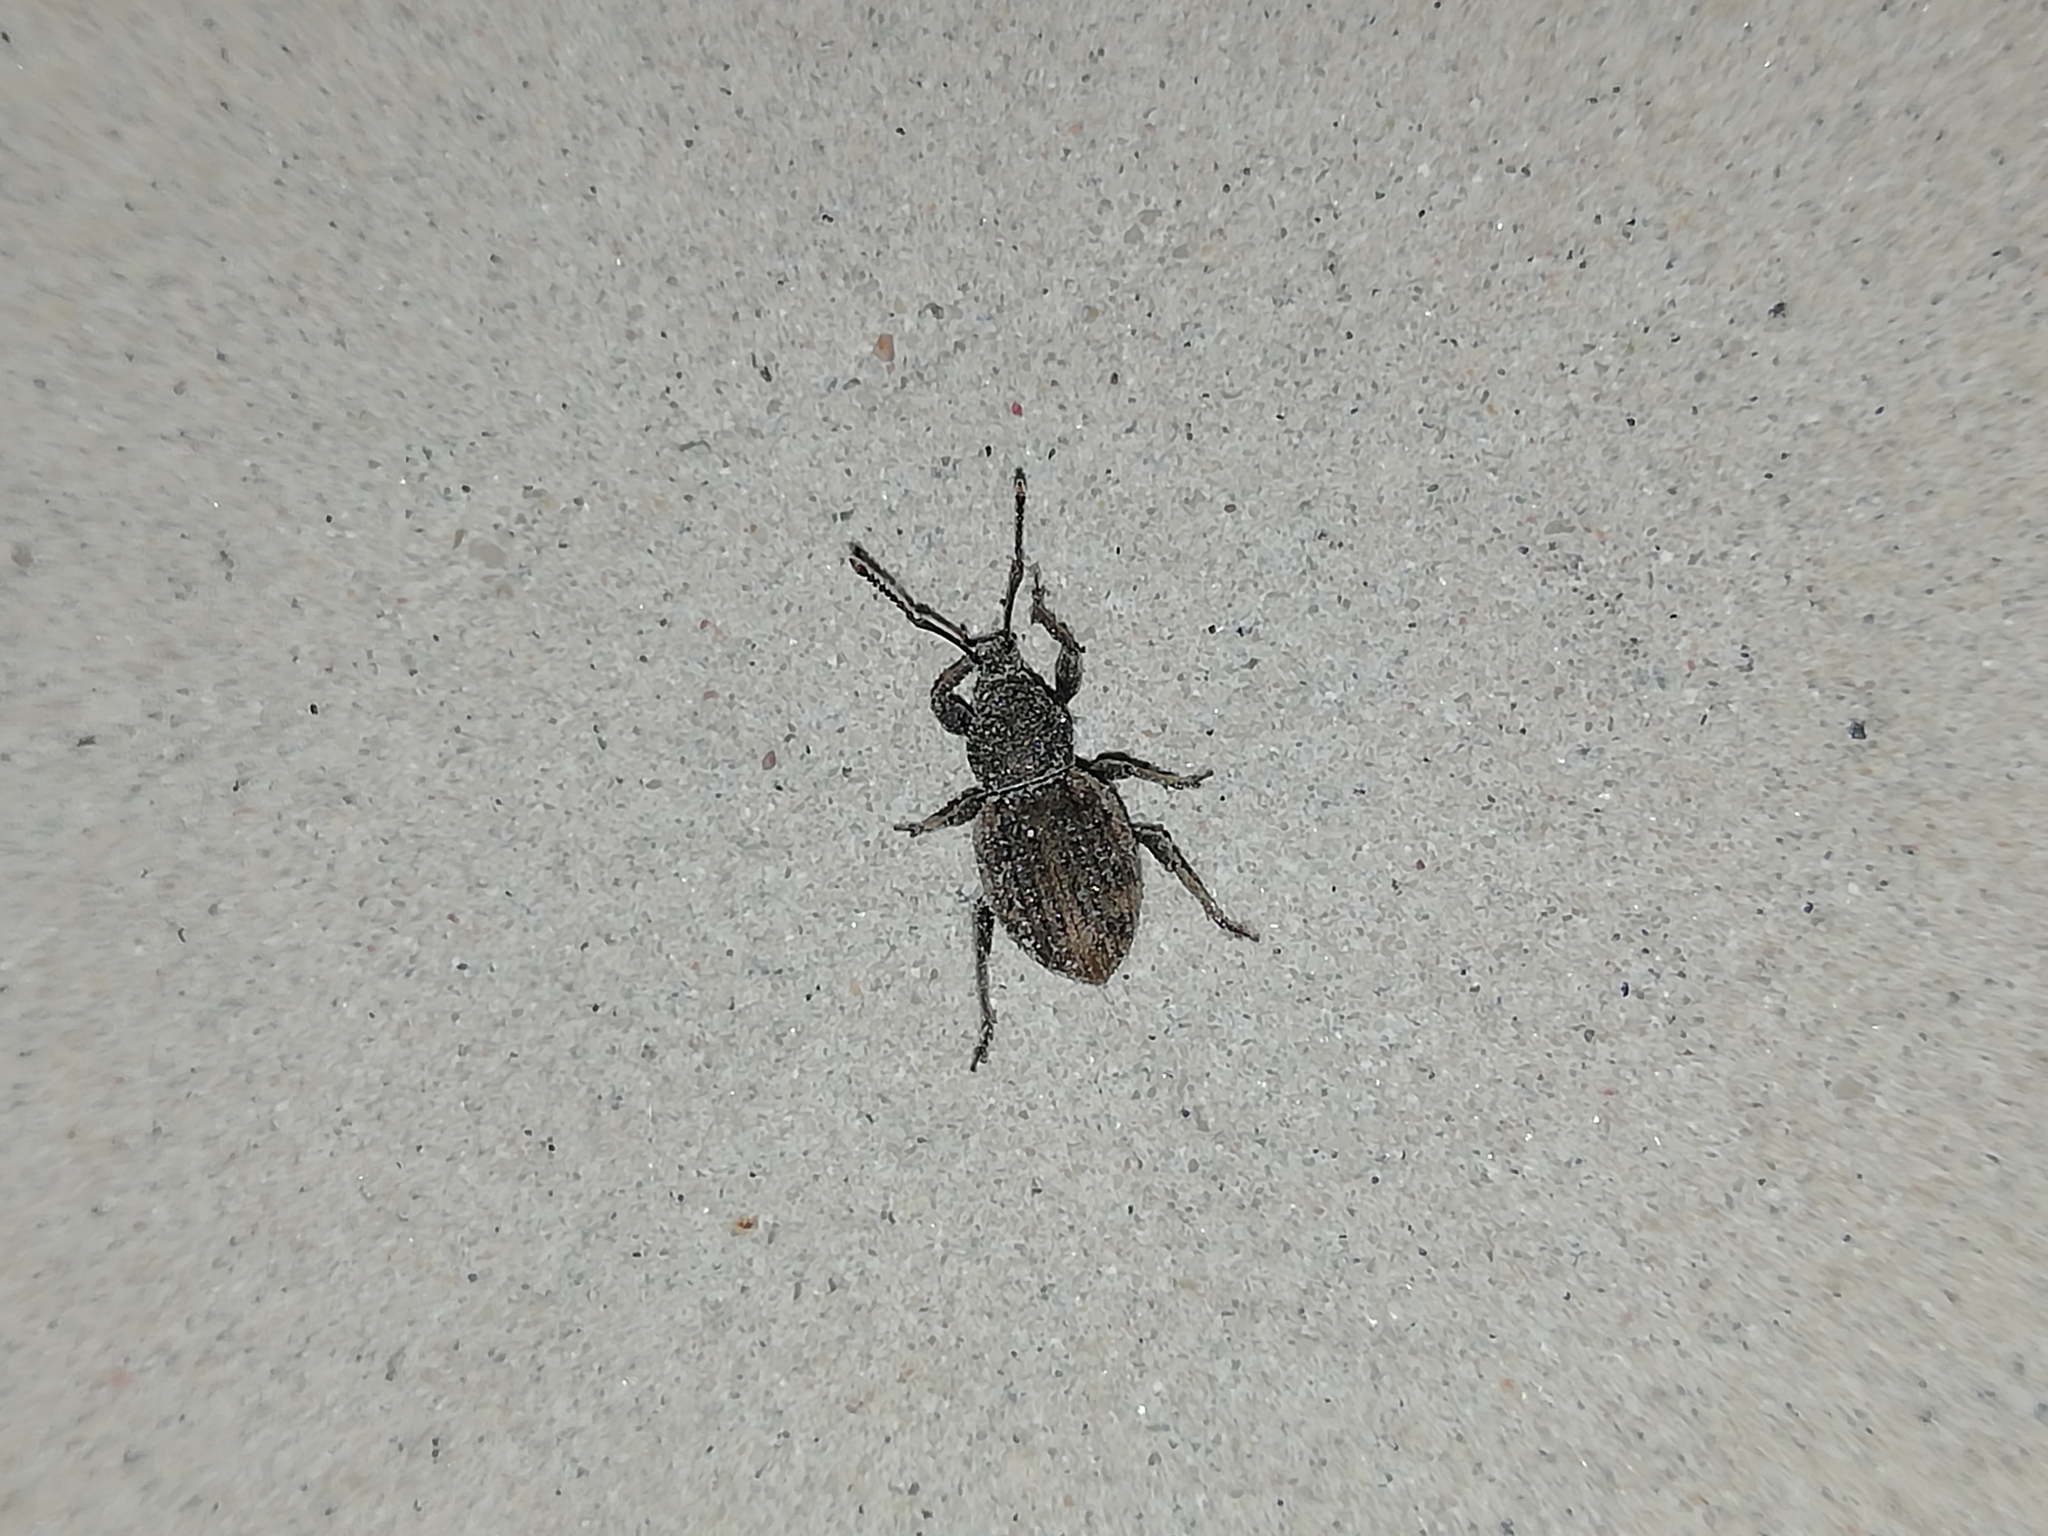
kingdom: Animalia
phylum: Arthropoda
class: Insecta
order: Coleoptera
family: Curculionidae
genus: Otiorhynchus
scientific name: Otiorhynchus raucus
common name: Weevil
